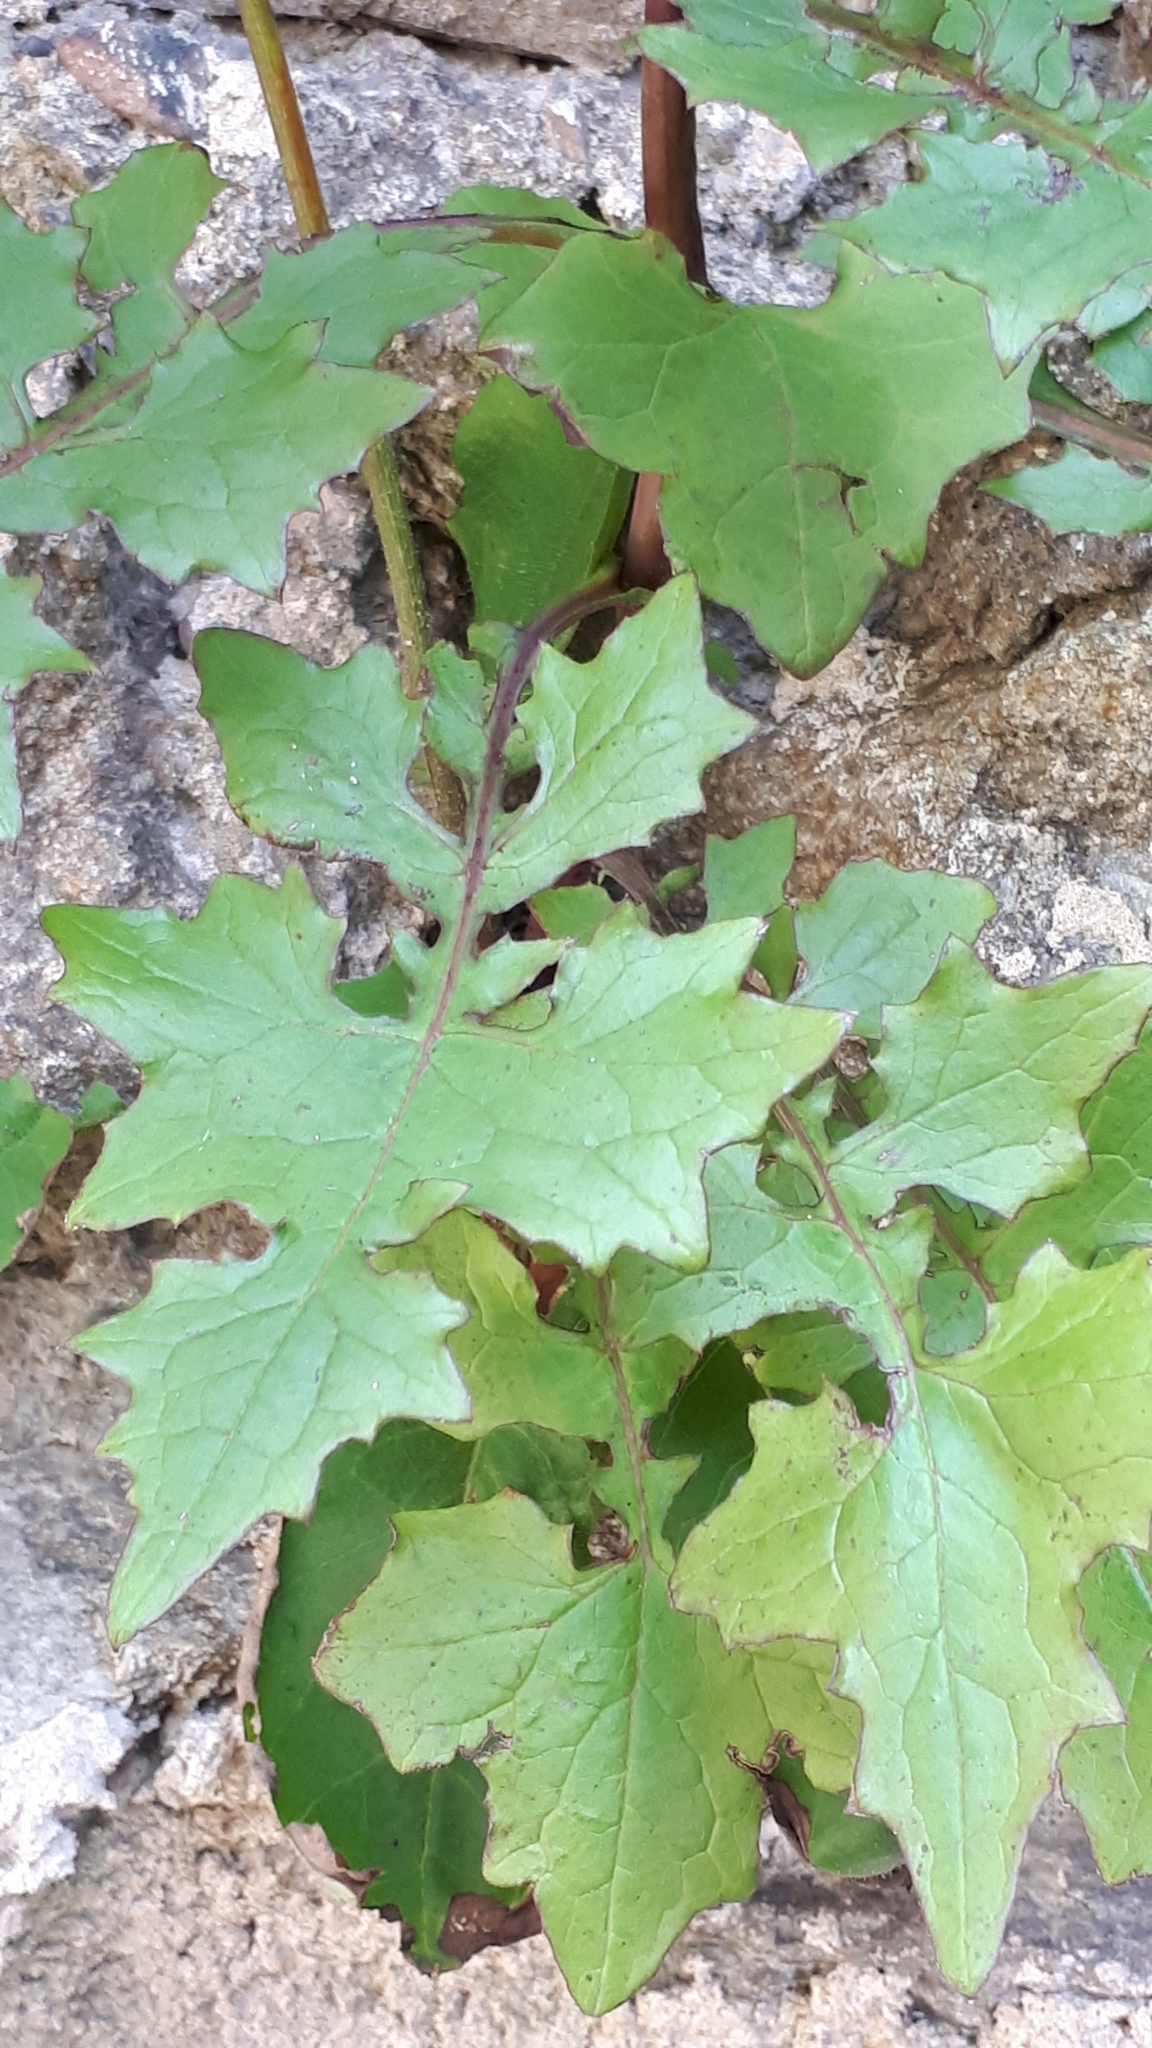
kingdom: Plantae
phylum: Tracheophyta
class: Magnoliopsida
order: Asterales
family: Asteraceae
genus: Mycelis
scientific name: Mycelis muralis
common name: Wall lettuce
